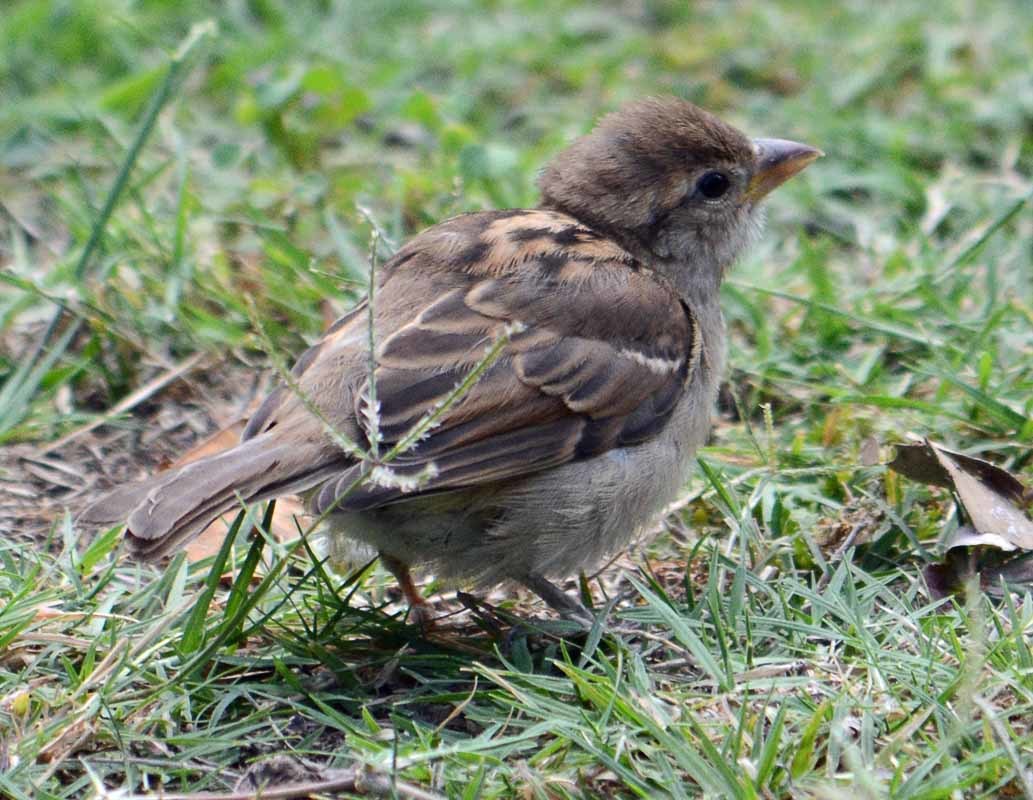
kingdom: Animalia
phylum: Chordata
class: Aves
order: Passeriformes
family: Passeridae
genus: Passer
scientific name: Passer domesticus
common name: House sparrow
